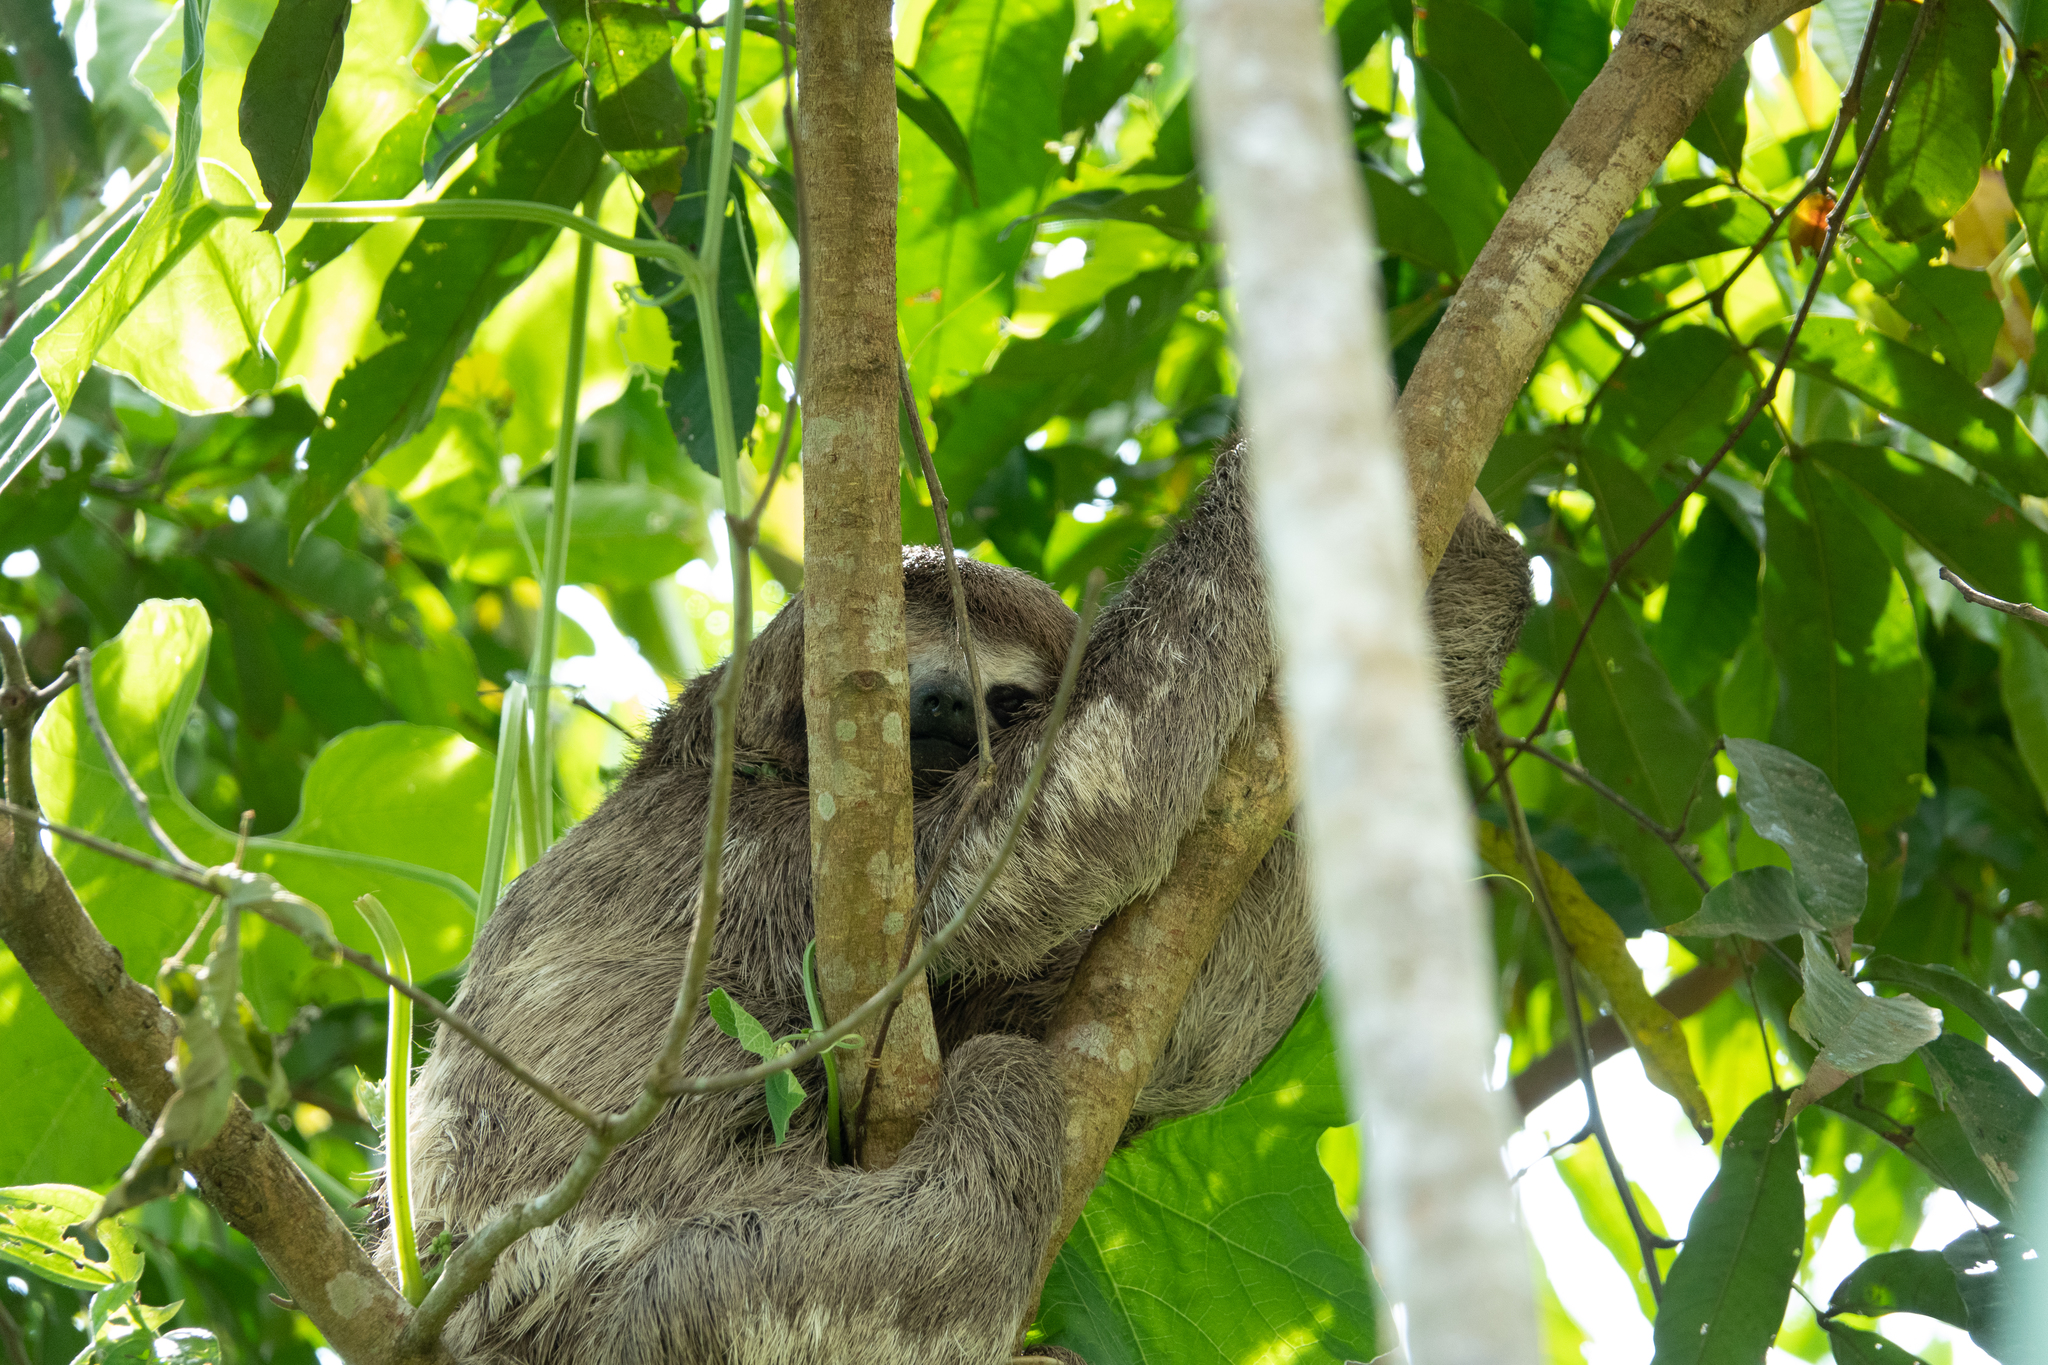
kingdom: Animalia
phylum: Chordata
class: Mammalia
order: Pilosa
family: Bradypodidae
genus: Bradypus
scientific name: Bradypus variegatus
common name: Brown-throated three-toed sloth
